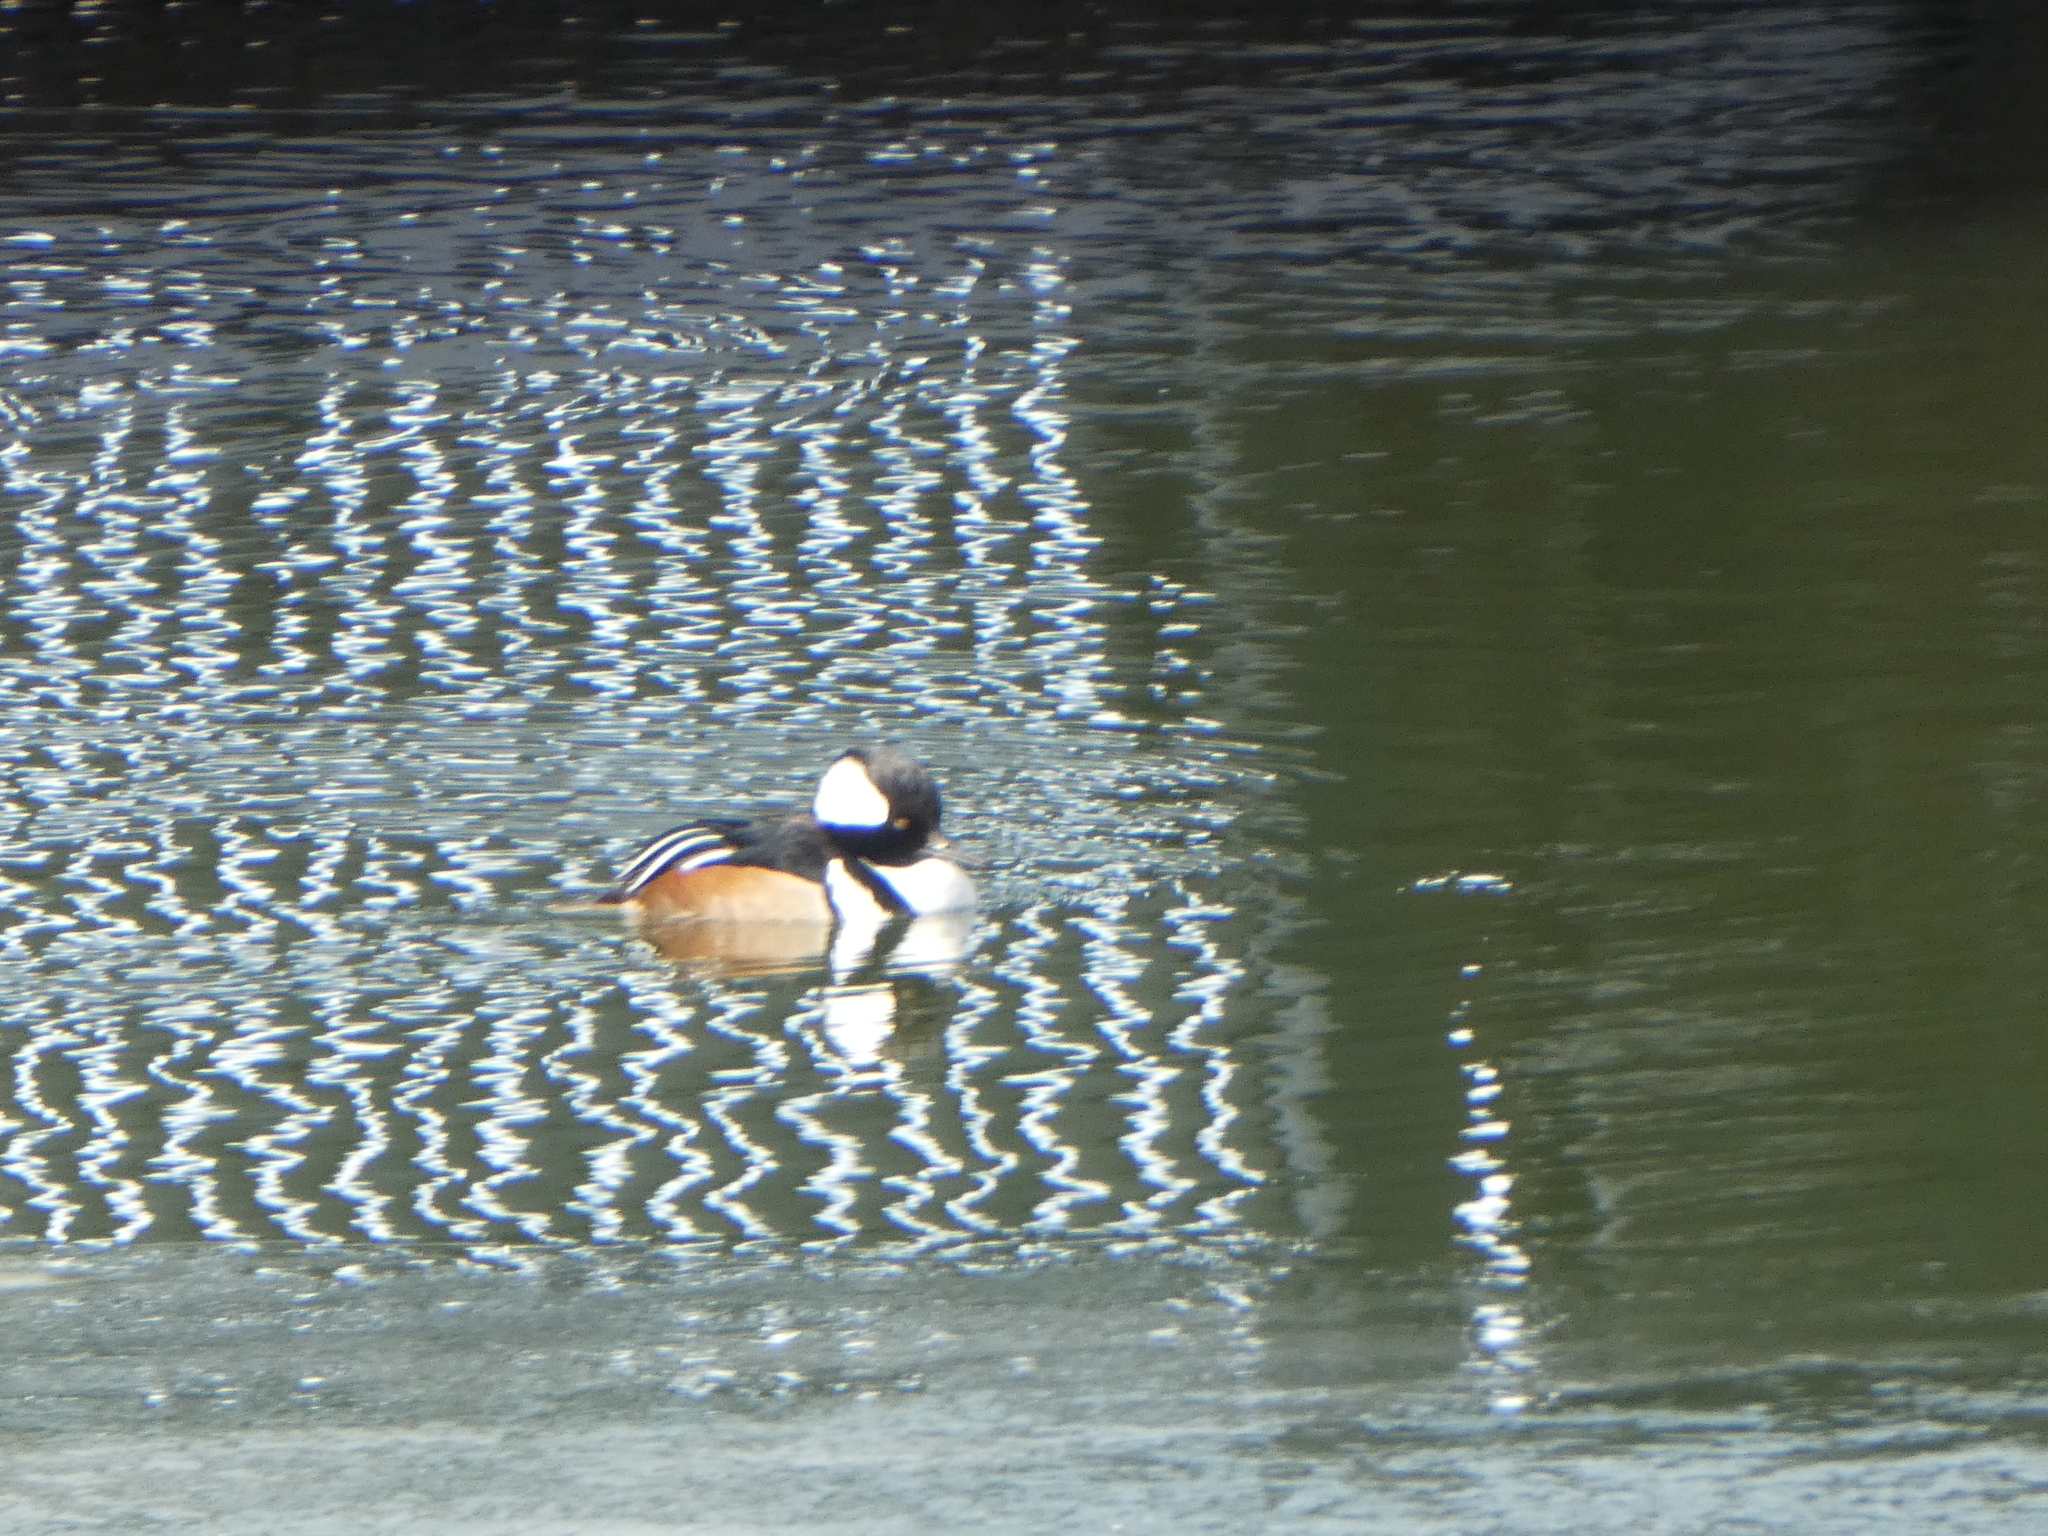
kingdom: Animalia
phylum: Chordata
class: Aves
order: Anseriformes
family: Anatidae
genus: Lophodytes
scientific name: Lophodytes cucullatus
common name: Hooded merganser
